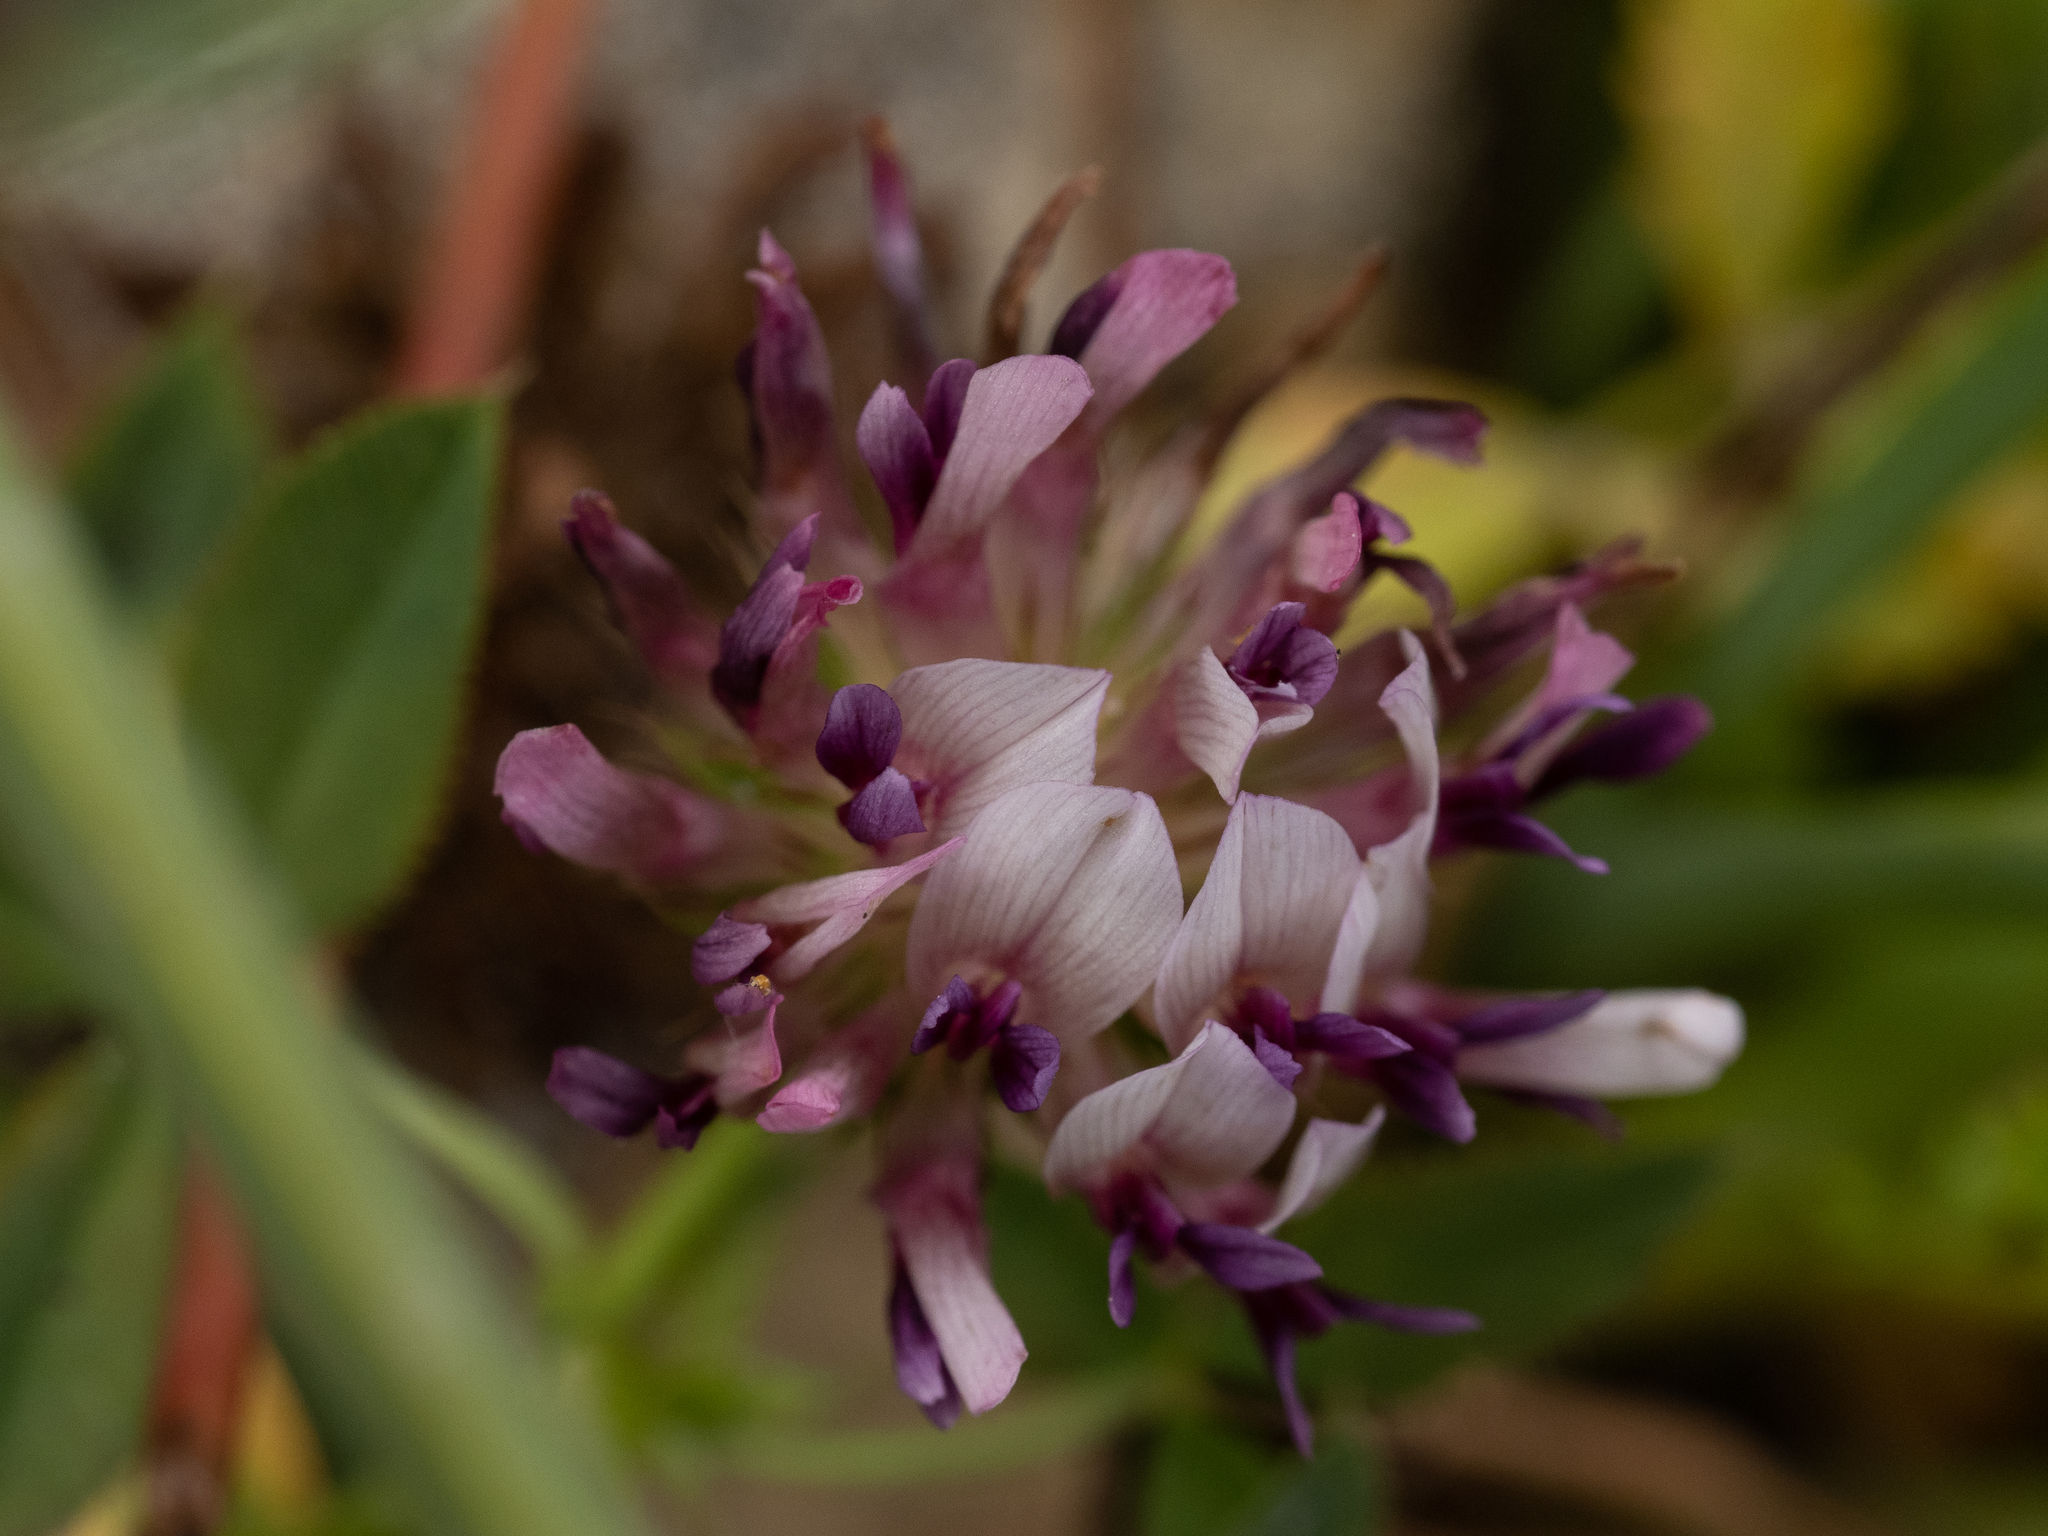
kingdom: Plantae
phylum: Tracheophyta
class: Magnoliopsida
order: Fabales
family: Fabaceae
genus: Trifolium
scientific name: Trifolium wormskioldii
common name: Springbank clover
